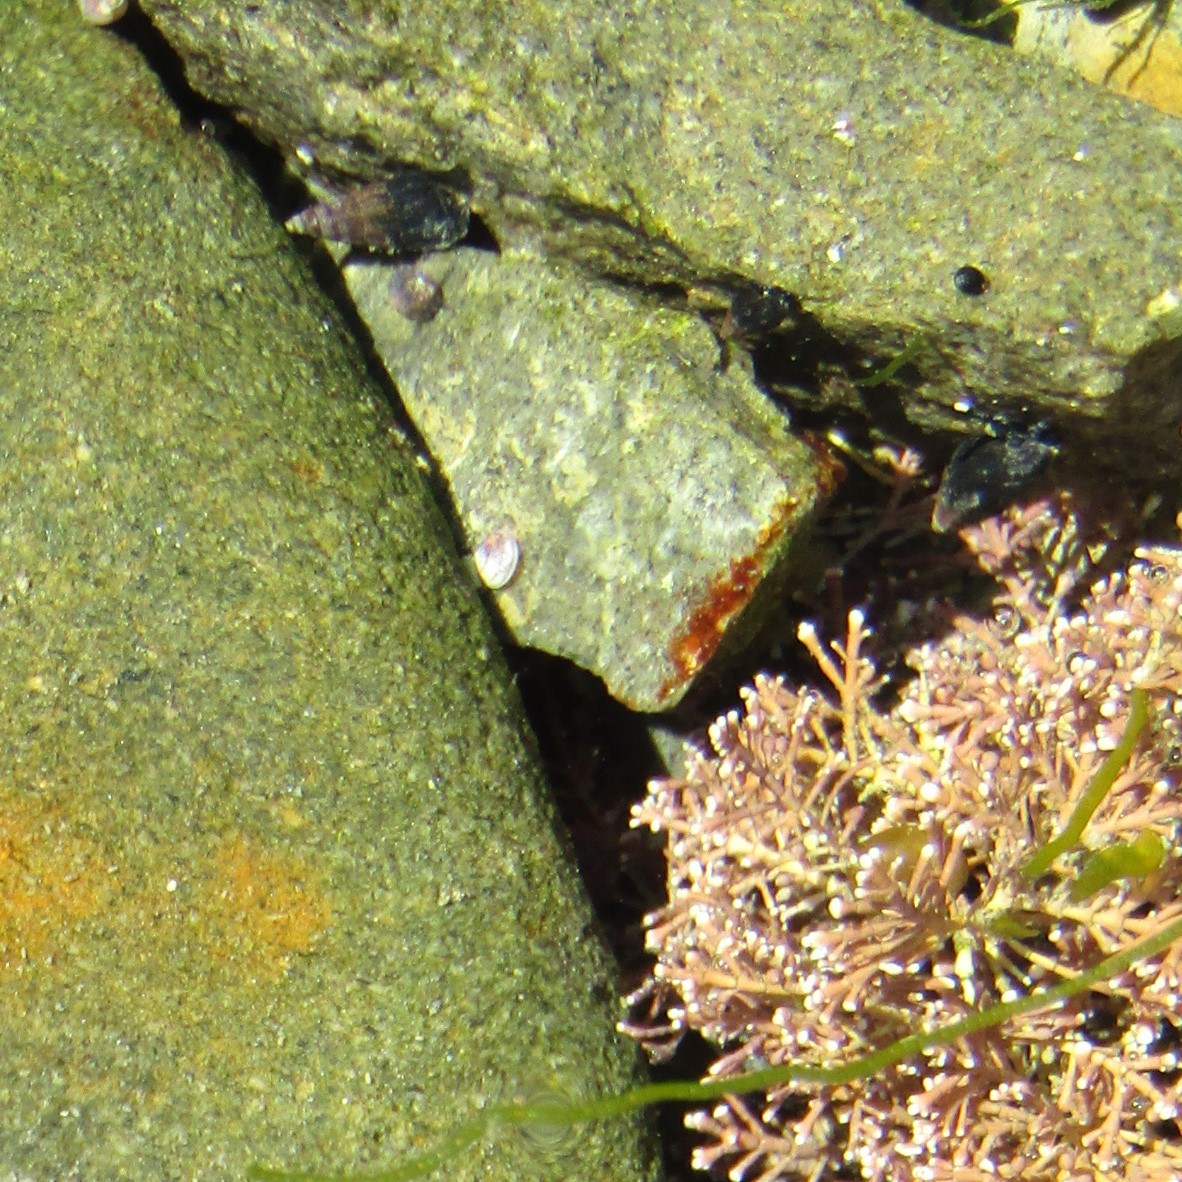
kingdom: Animalia
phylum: Mollusca
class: Gastropoda
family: Batillariidae
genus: Zeacumantus
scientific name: Zeacumantus subcarinatus
